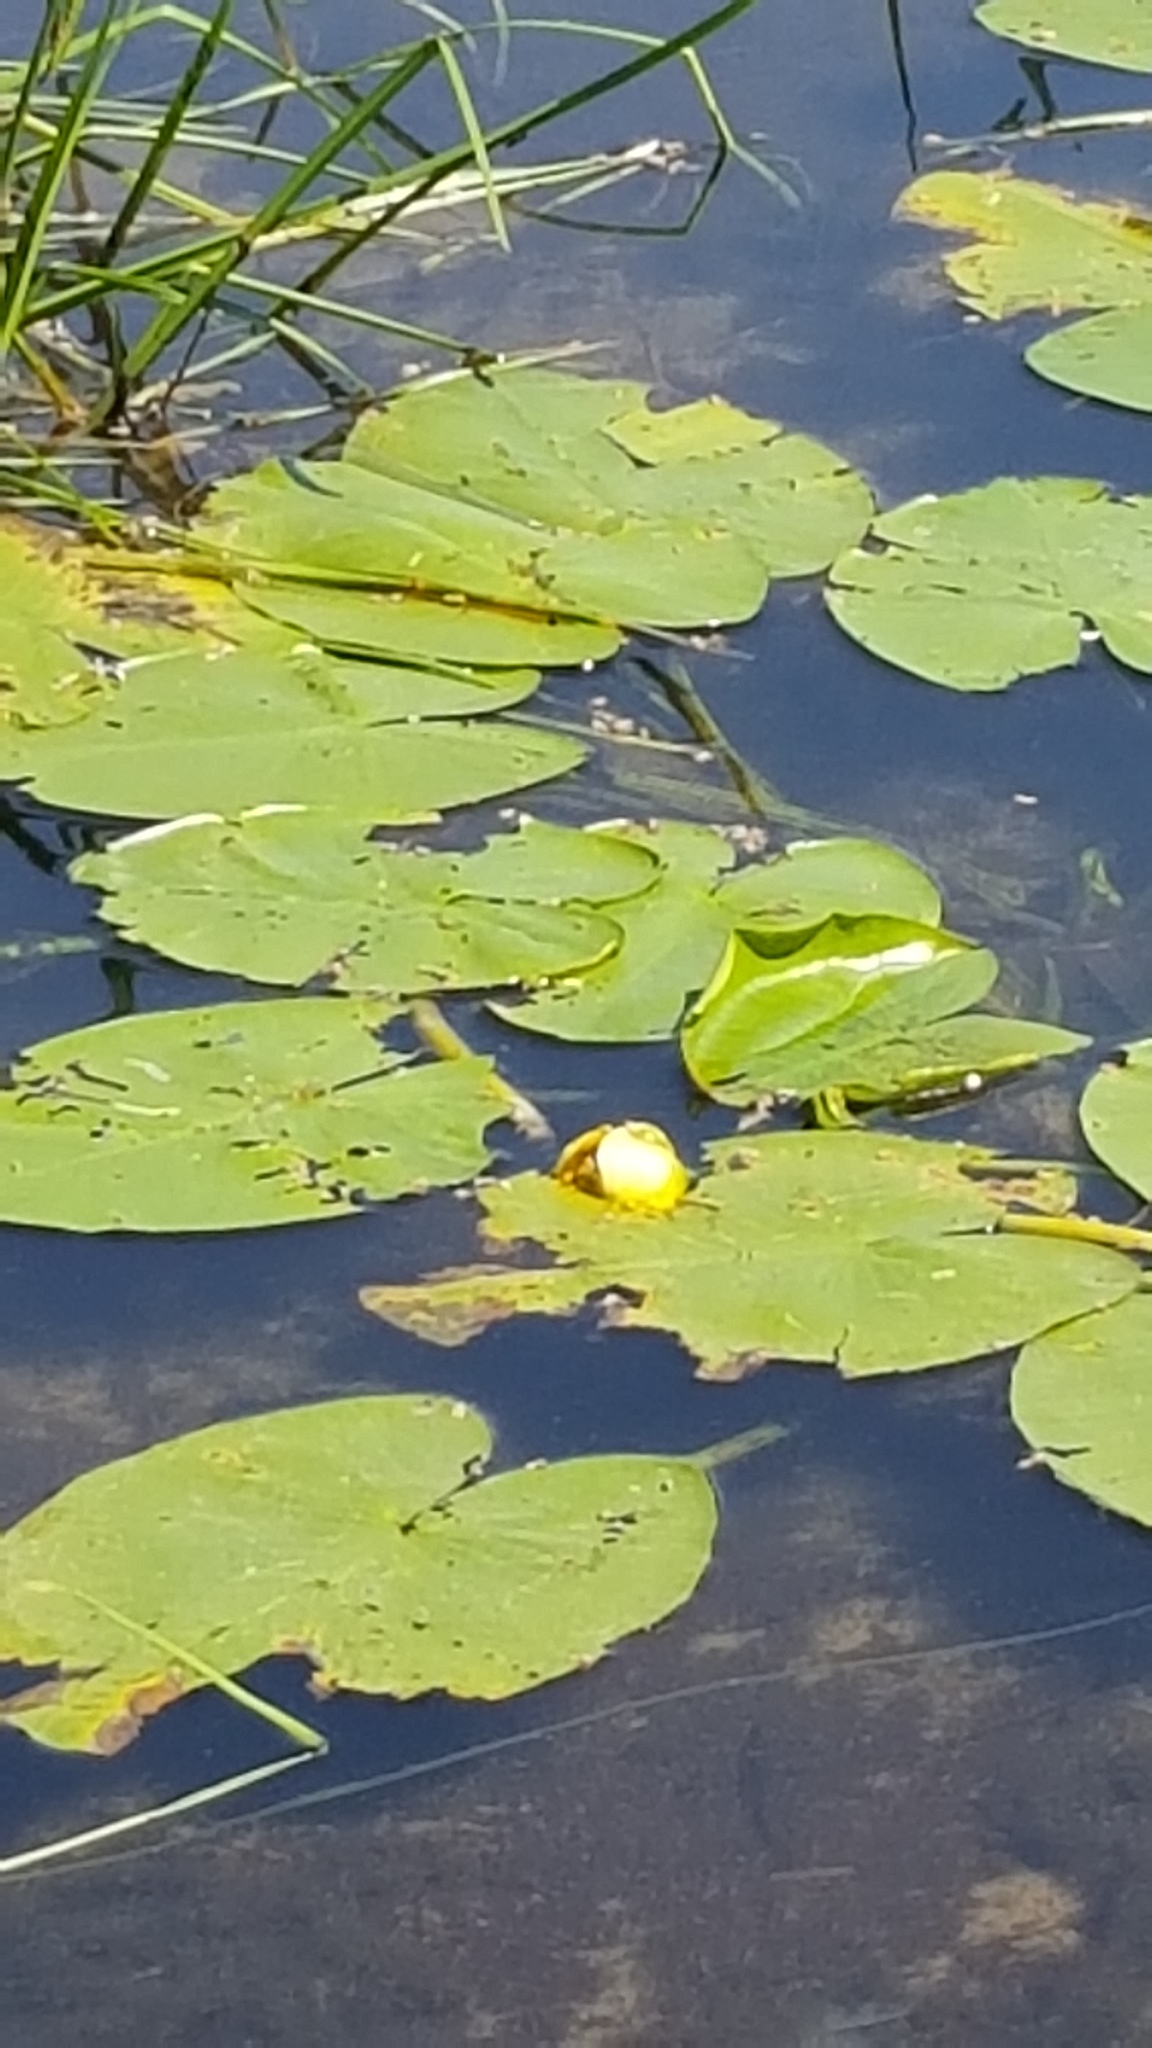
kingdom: Plantae
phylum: Tracheophyta
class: Magnoliopsida
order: Nymphaeales
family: Nymphaeaceae
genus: Nuphar
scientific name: Nuphar variegata
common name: Beaver-root
